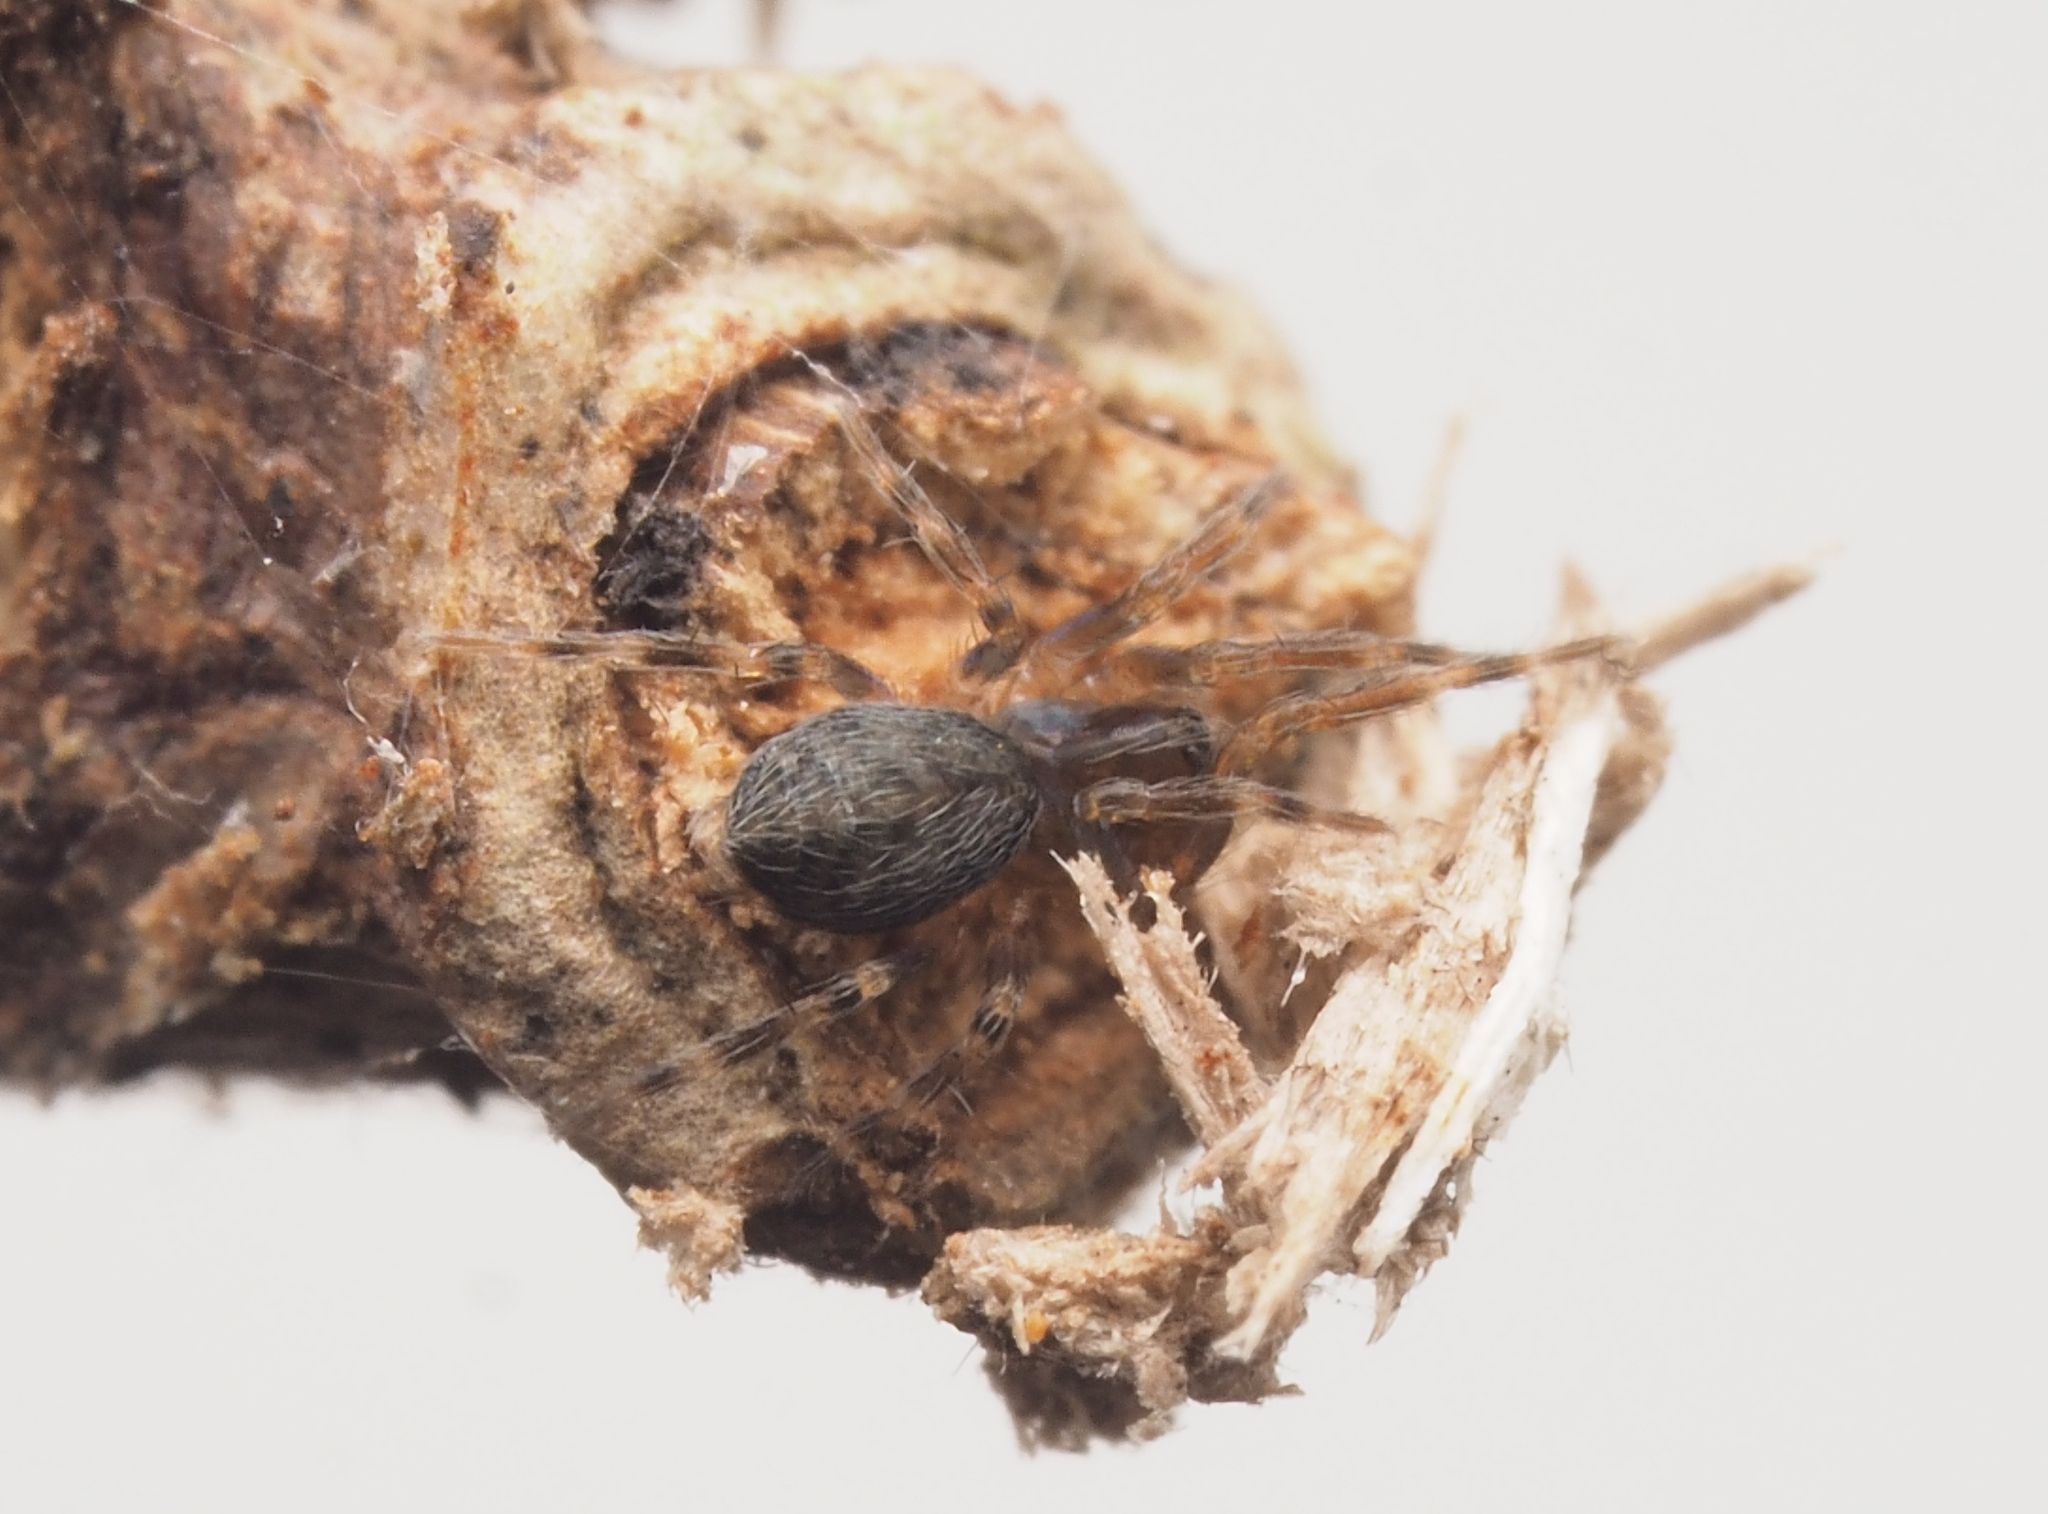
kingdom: Animalia
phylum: Arthropoda
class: Arachnida
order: Araneae
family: Hahniidae
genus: Alistra
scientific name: Alistra
